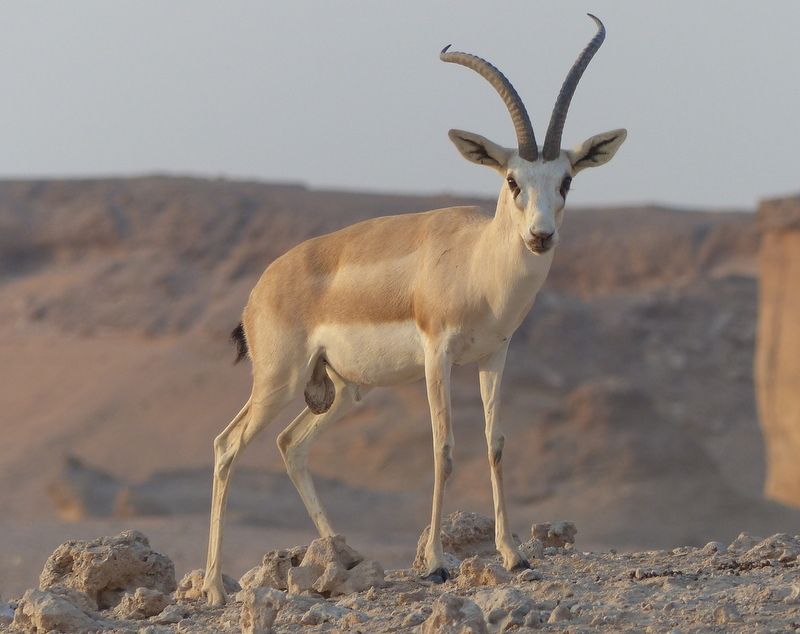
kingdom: Animalia
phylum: Chordata
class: Mammalia
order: Artiodactyla
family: Bovidae
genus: Gazella
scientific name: Gazella marica
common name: Arabian sand gazelle
